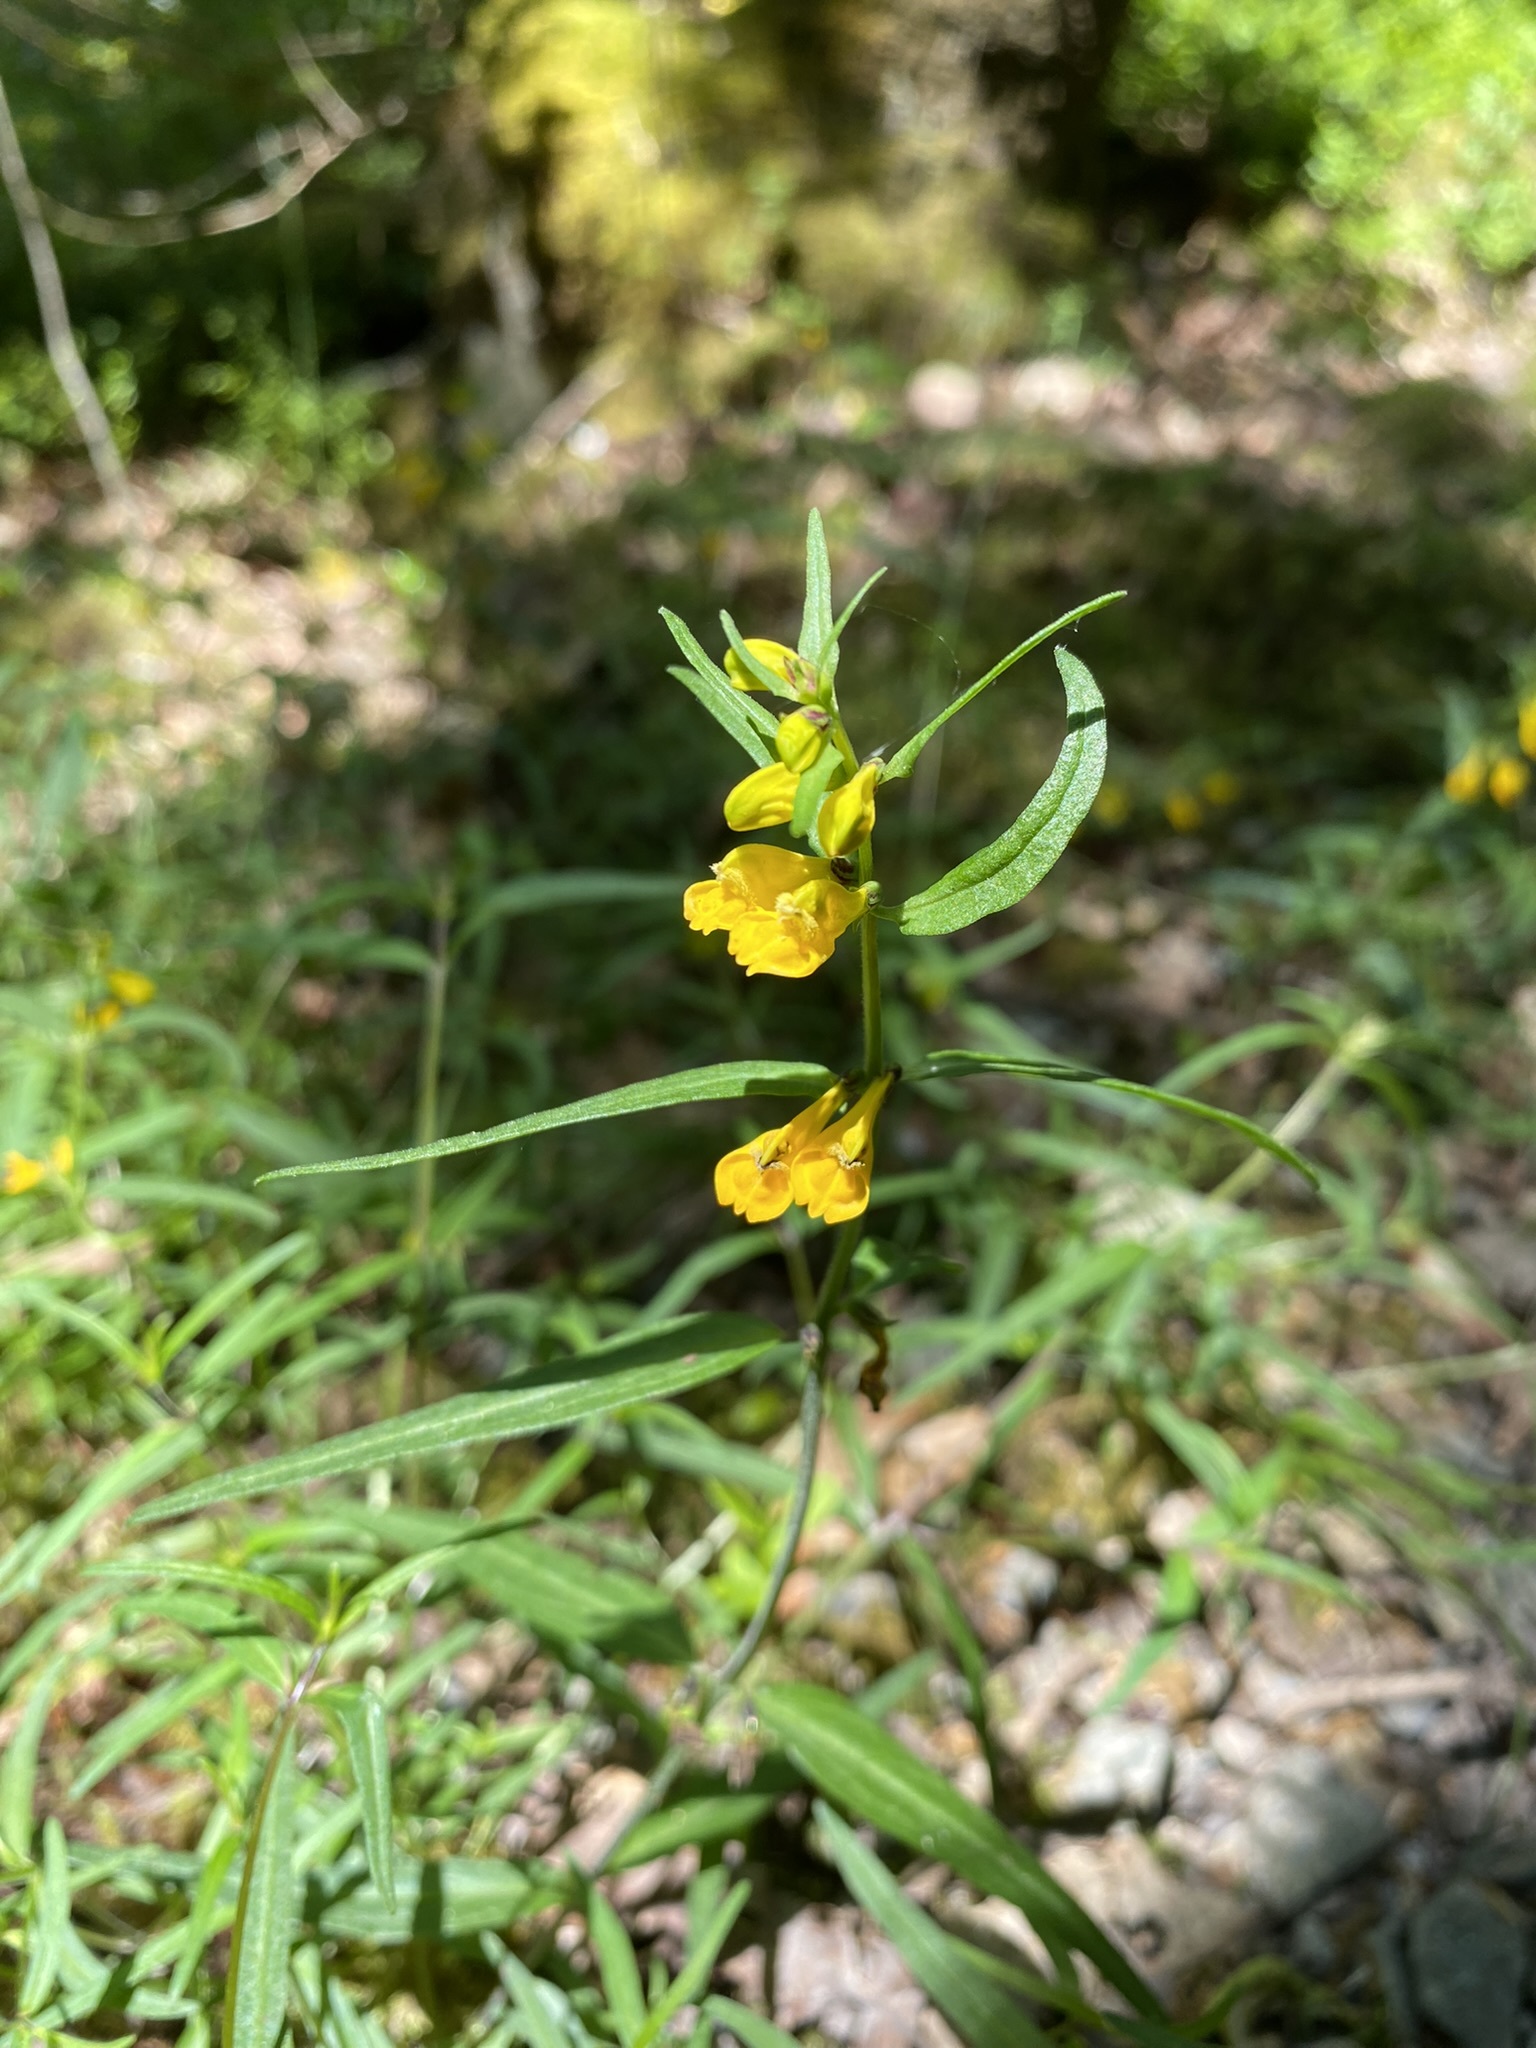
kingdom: Plantae
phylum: Tracheophyta
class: Magnoliopsida
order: Lamiales
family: Orobanchaceae
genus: Melampyrum
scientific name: Melampyrum pratense
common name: Common cow-wheat
